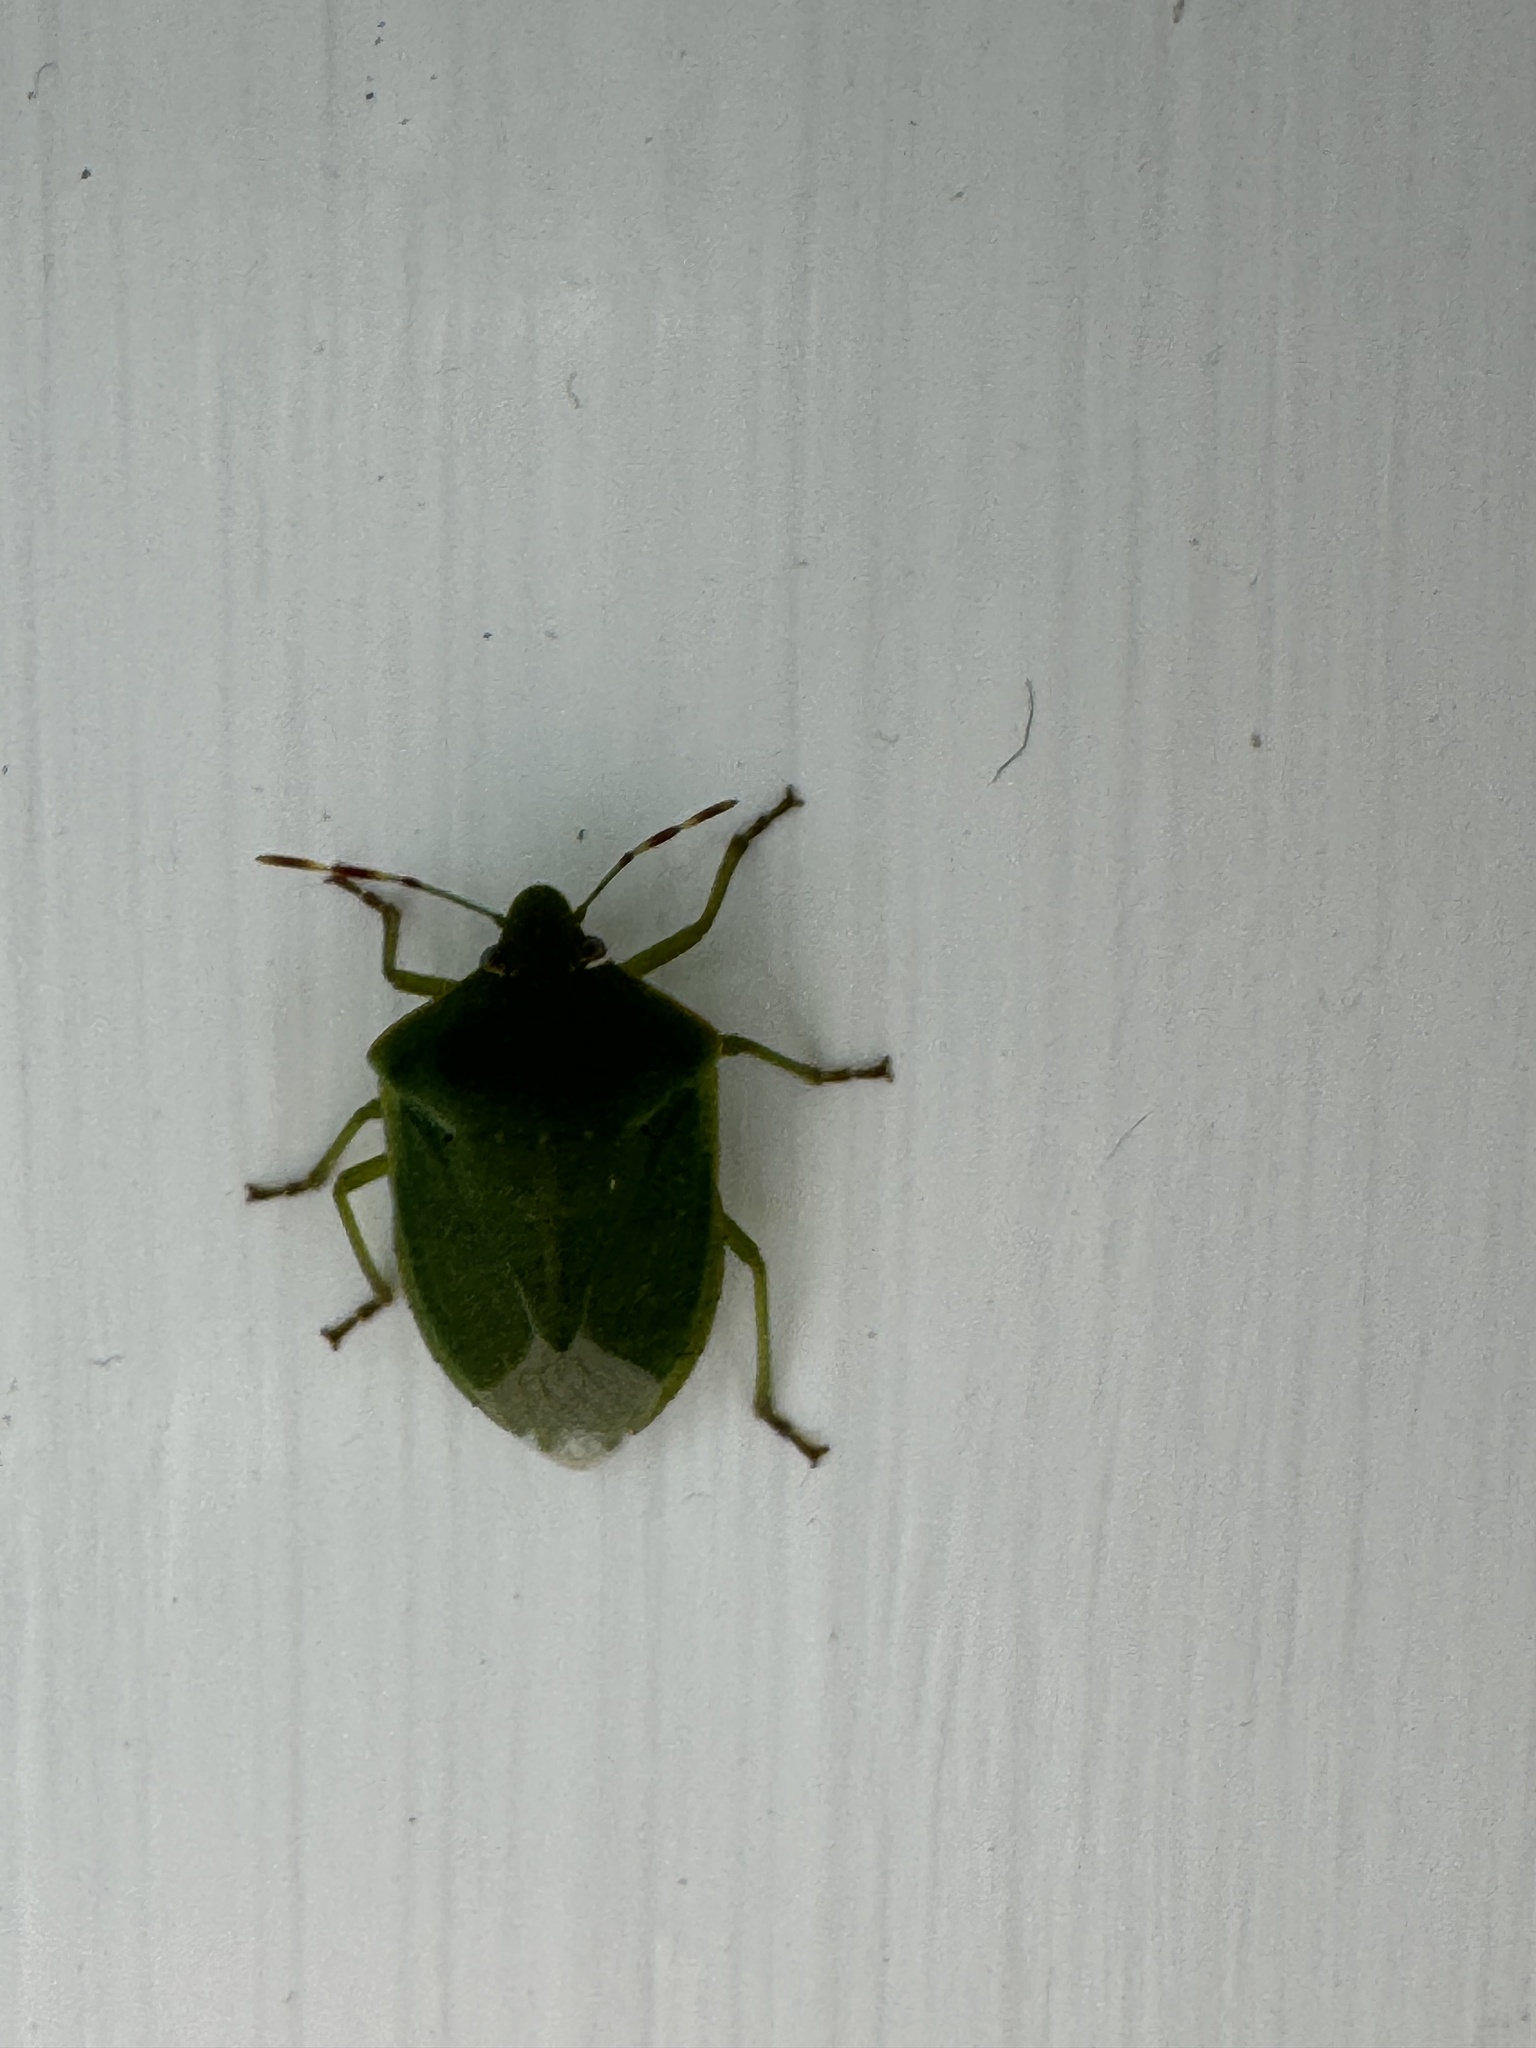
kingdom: Animalia
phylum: Arthropoda
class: Insecta
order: Hemiptera
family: Pentatomidae
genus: Nezara
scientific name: Nezara viridula
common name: Southern green stink bug
